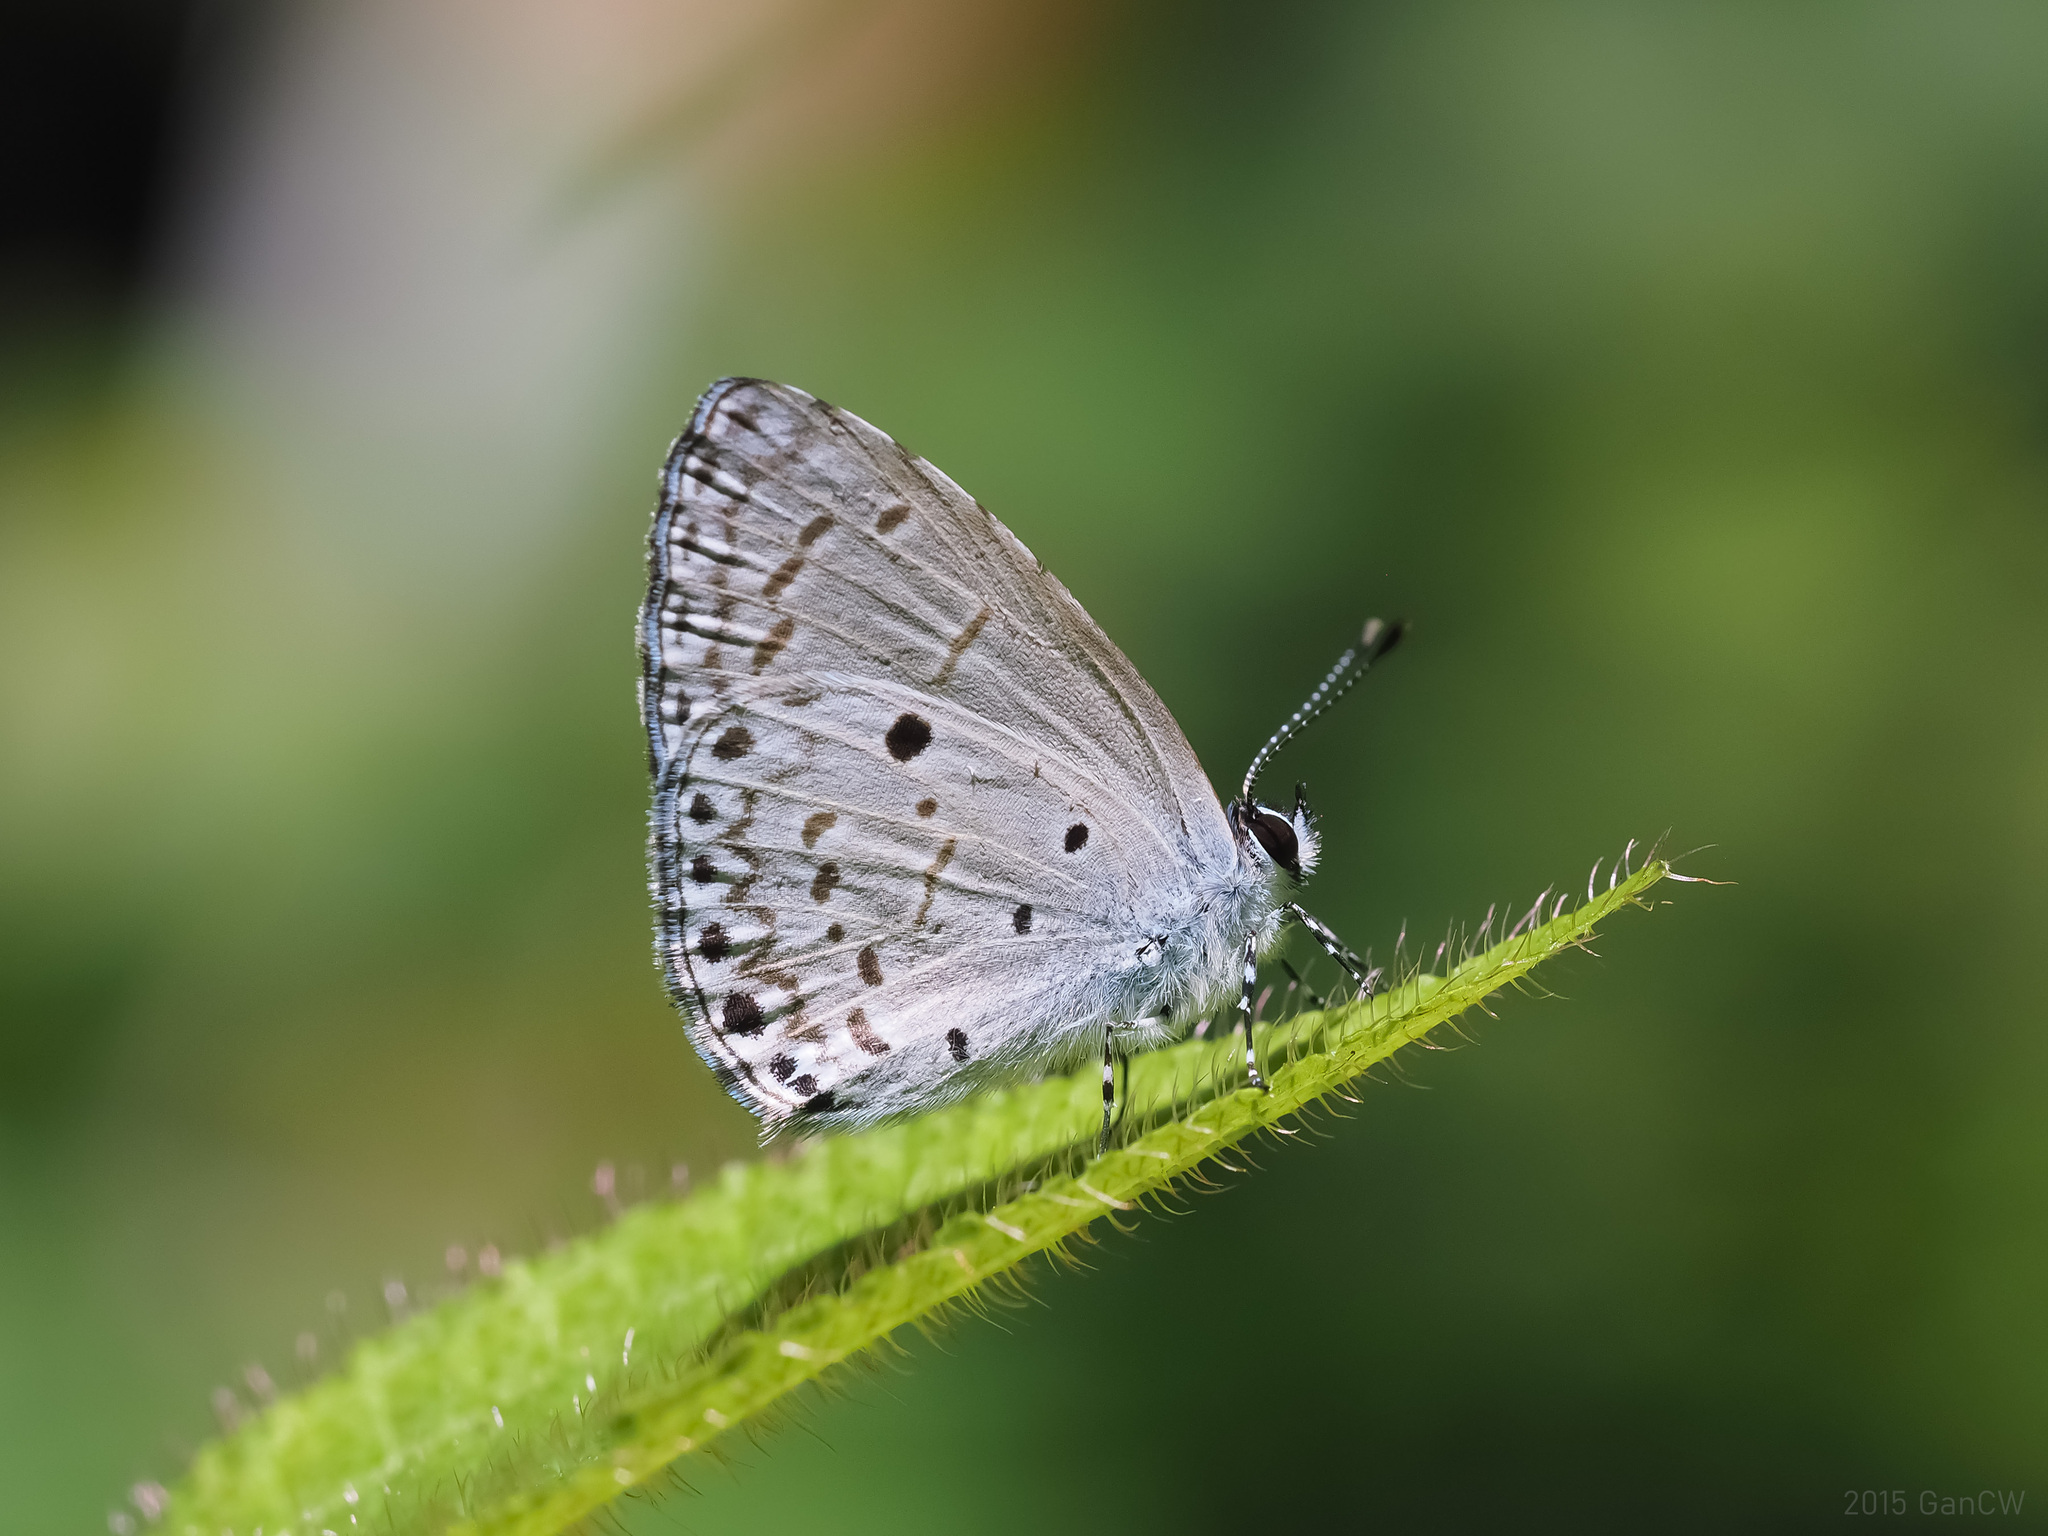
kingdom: Animalia
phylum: Arthropoda
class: Insecta
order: Lepidoptera
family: Lycaenidae
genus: Udara
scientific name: Udara
